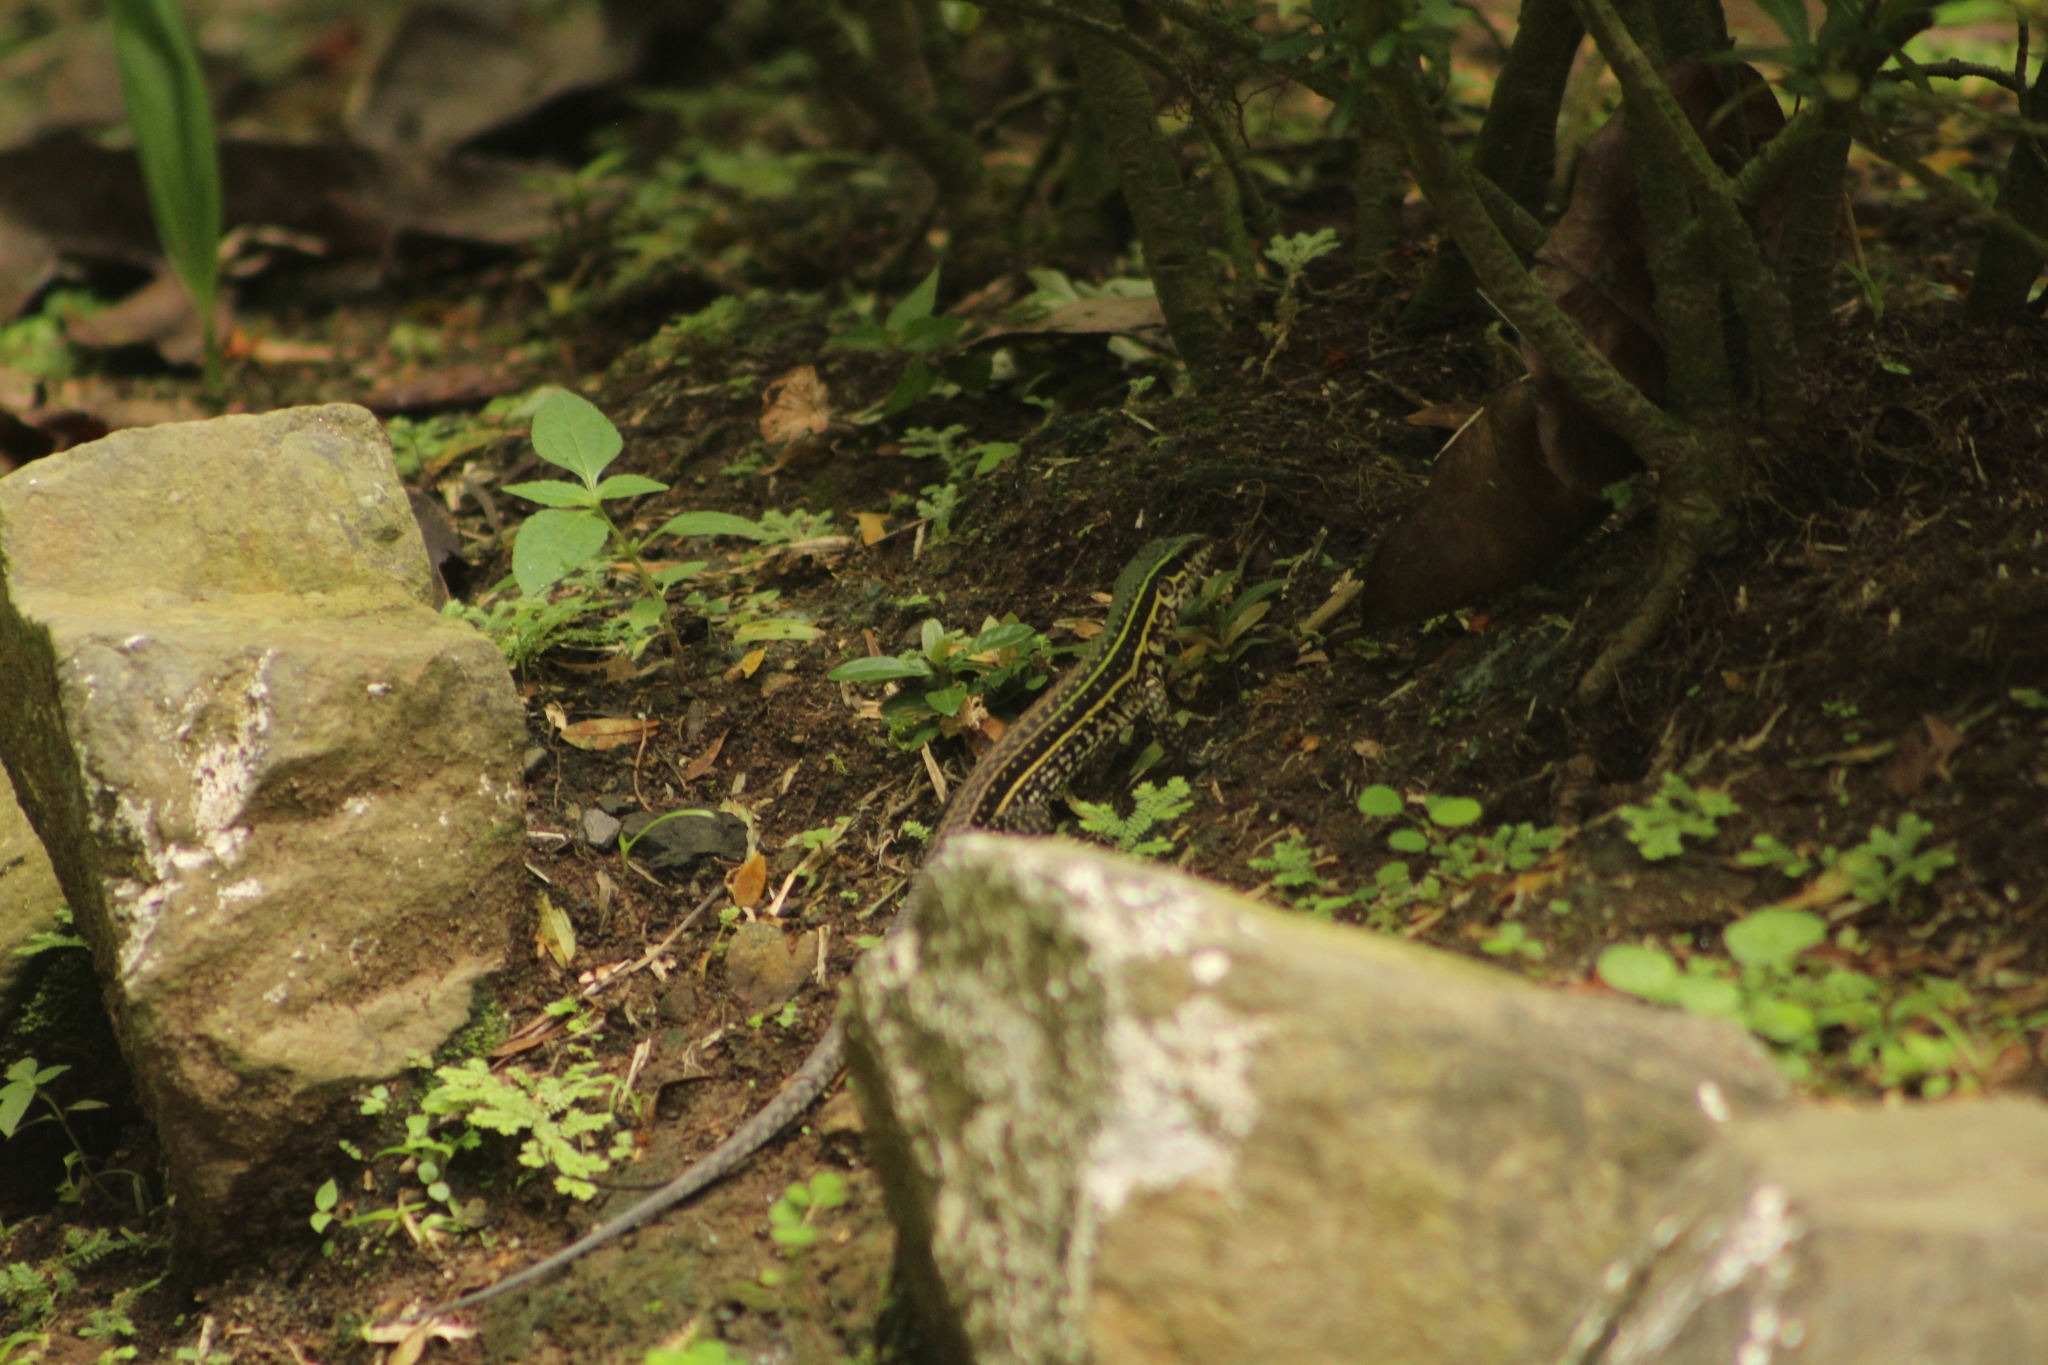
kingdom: Animalia
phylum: Chordata
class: Squamata
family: Teiidae
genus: Holcosus
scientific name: Holcosus quadrilineatus
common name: Four-lined ameiva
